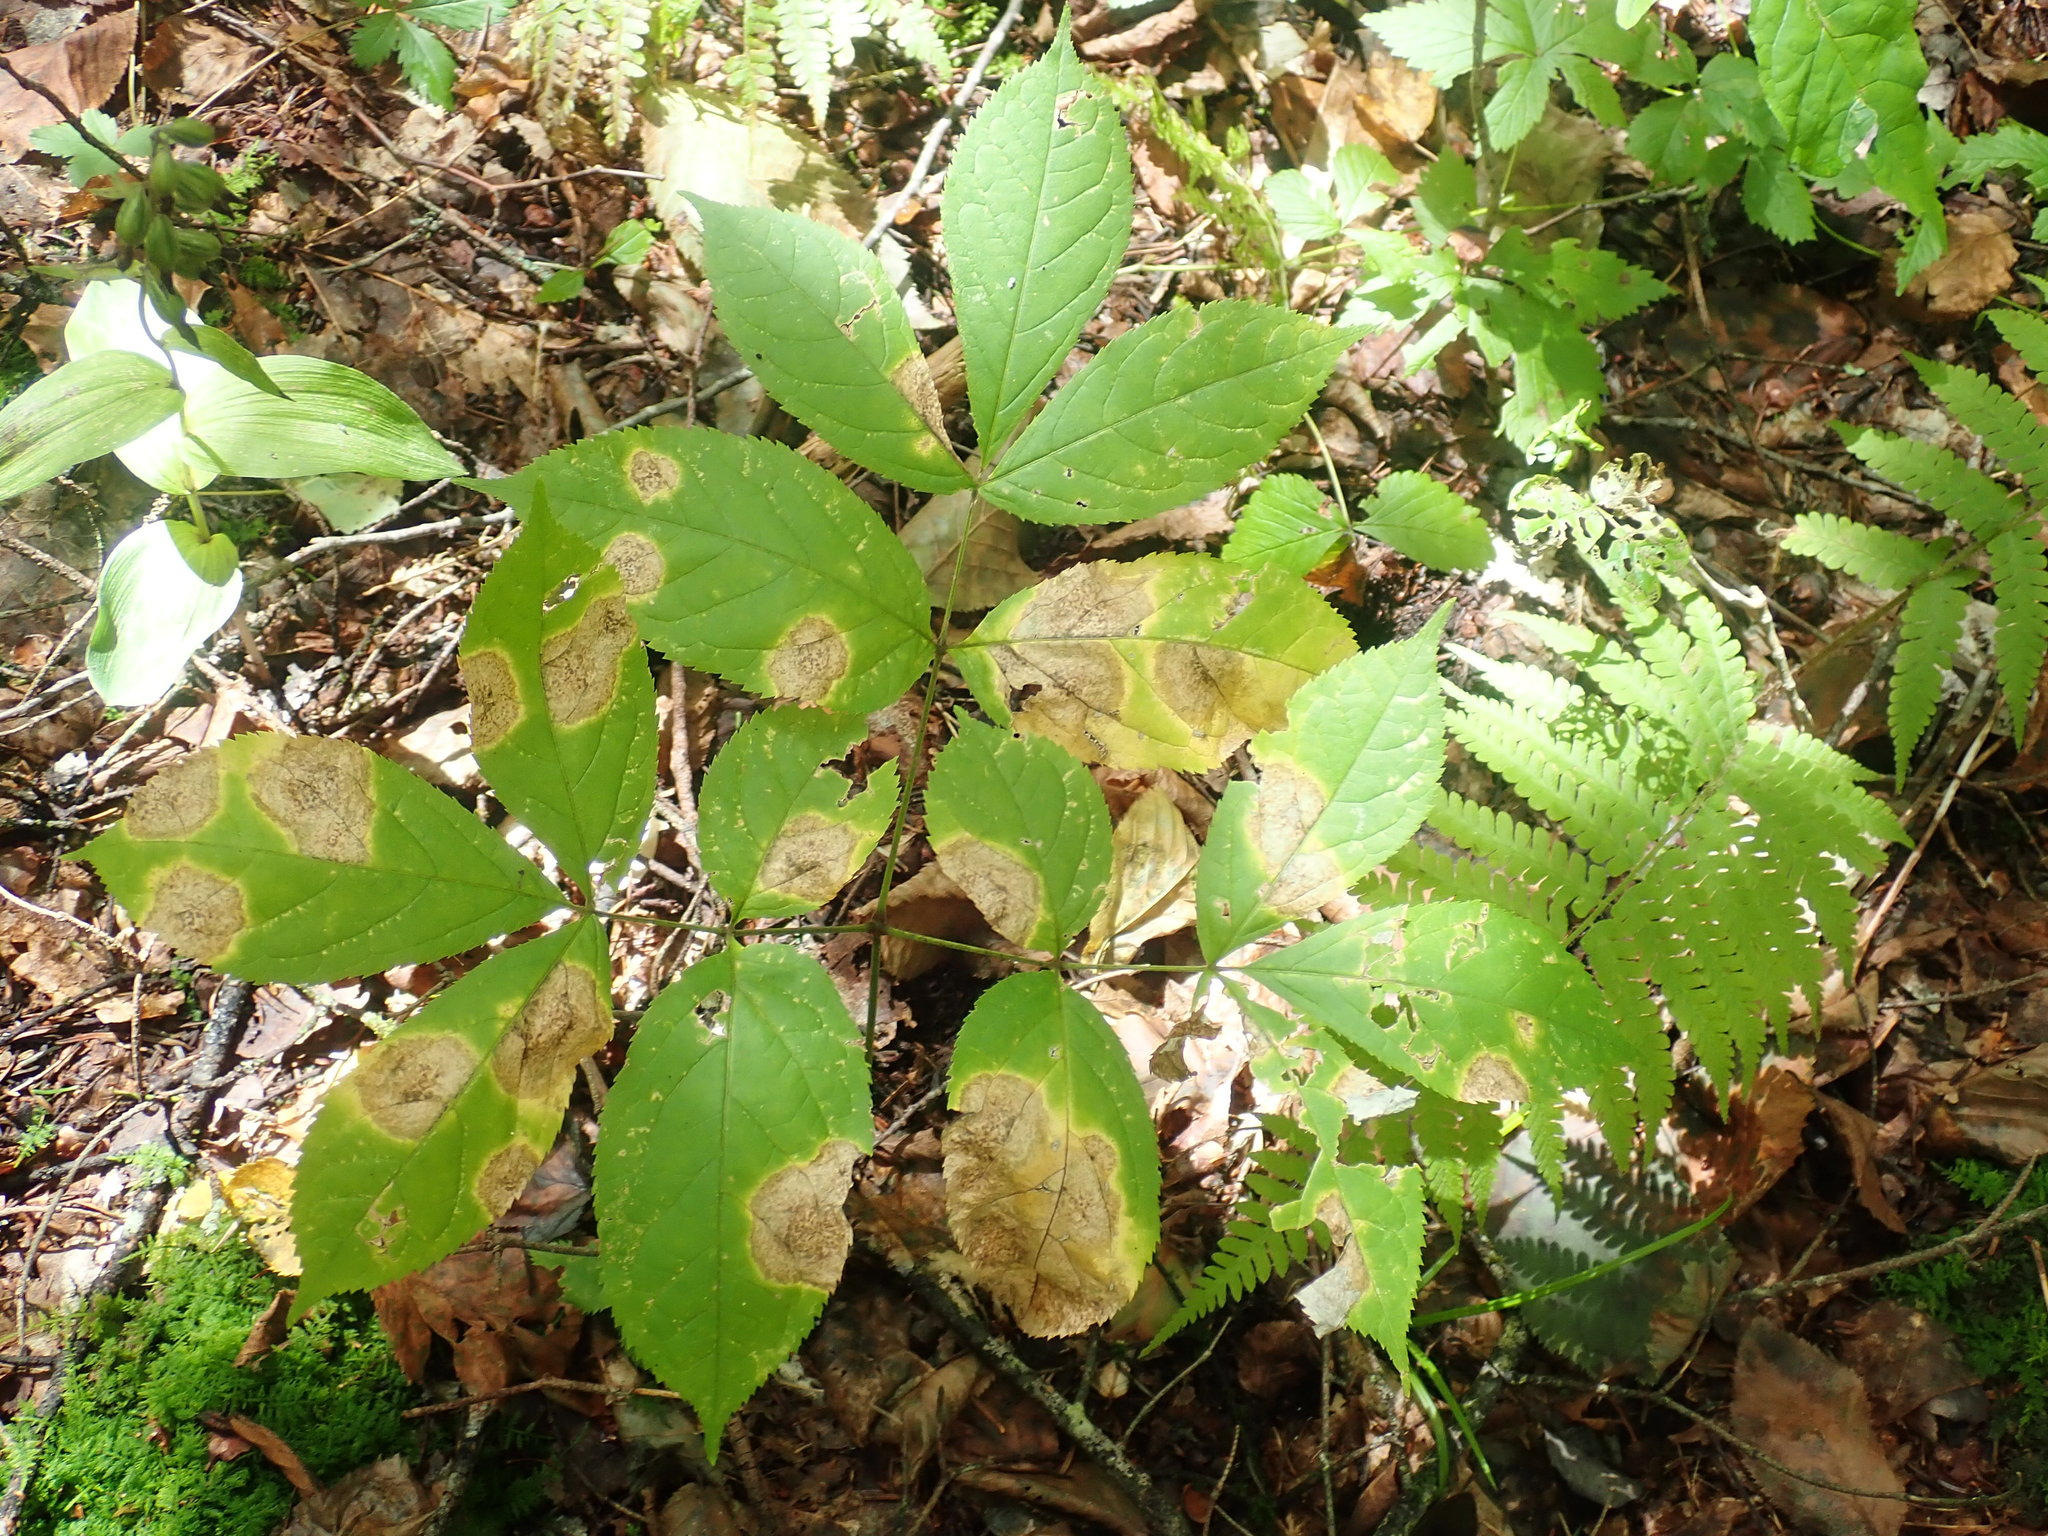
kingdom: Plantae
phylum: Tracheophyta
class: Magnoliopsida
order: Apiales
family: Araliaceae
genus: Aralia
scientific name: Aralia nudicaulis
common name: Wild sarsaparilla
